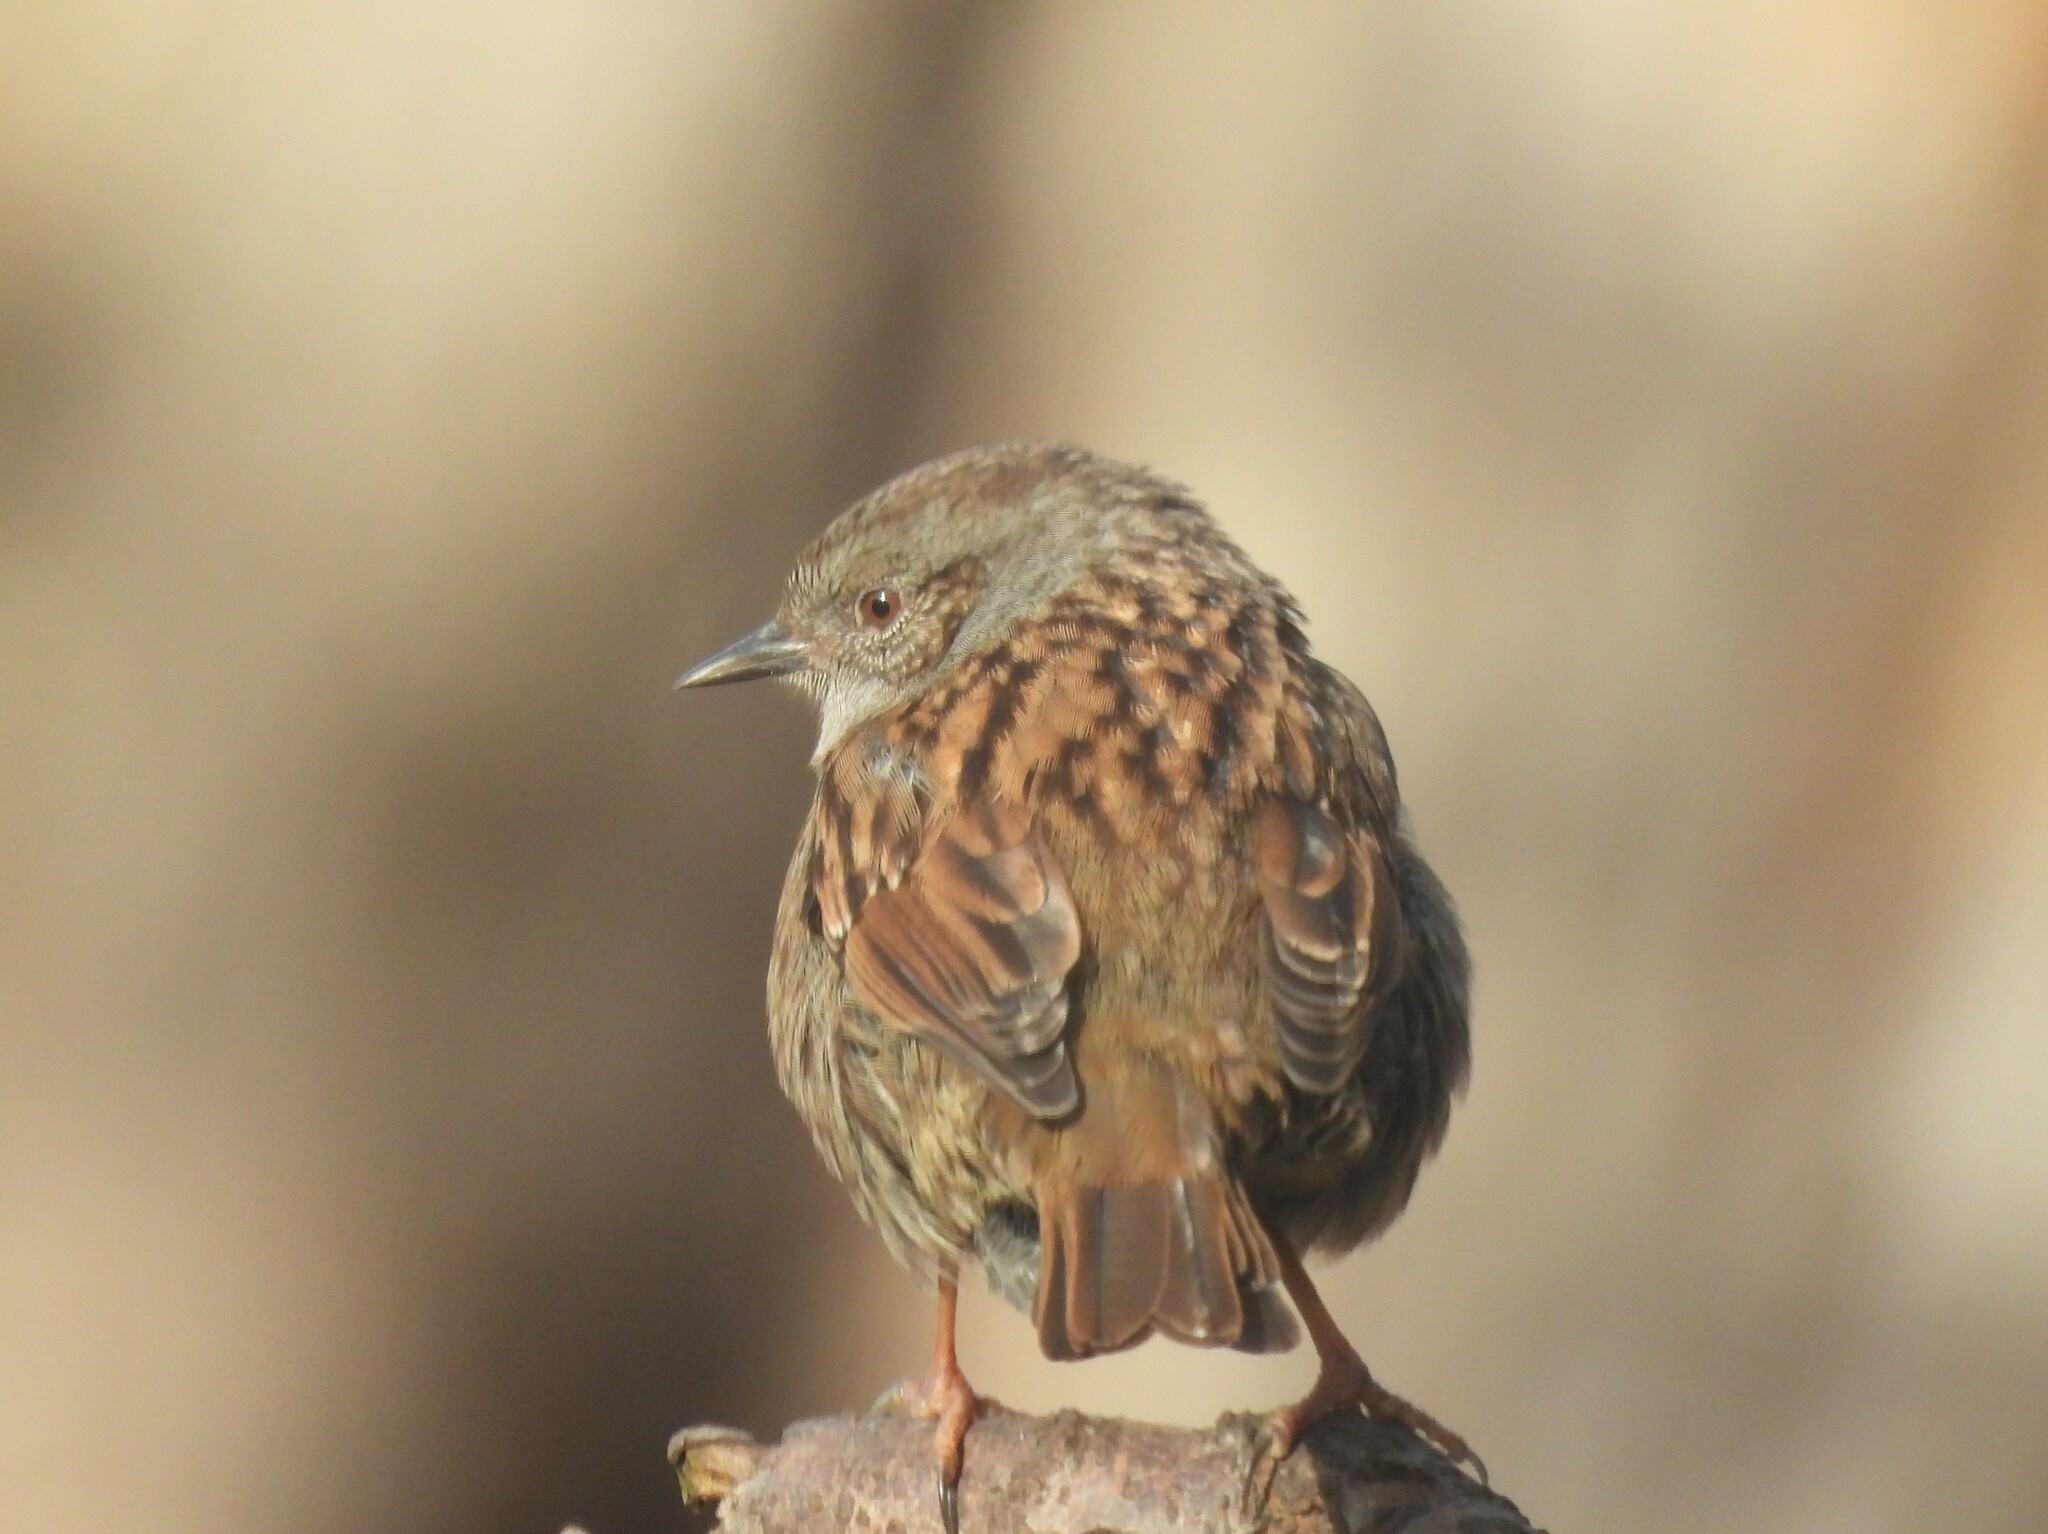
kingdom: Animalia
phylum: Chordata
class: Aves
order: Passeriformes
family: Prunellidae
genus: Prunella
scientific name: Prunella modularis
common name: Dunnock
